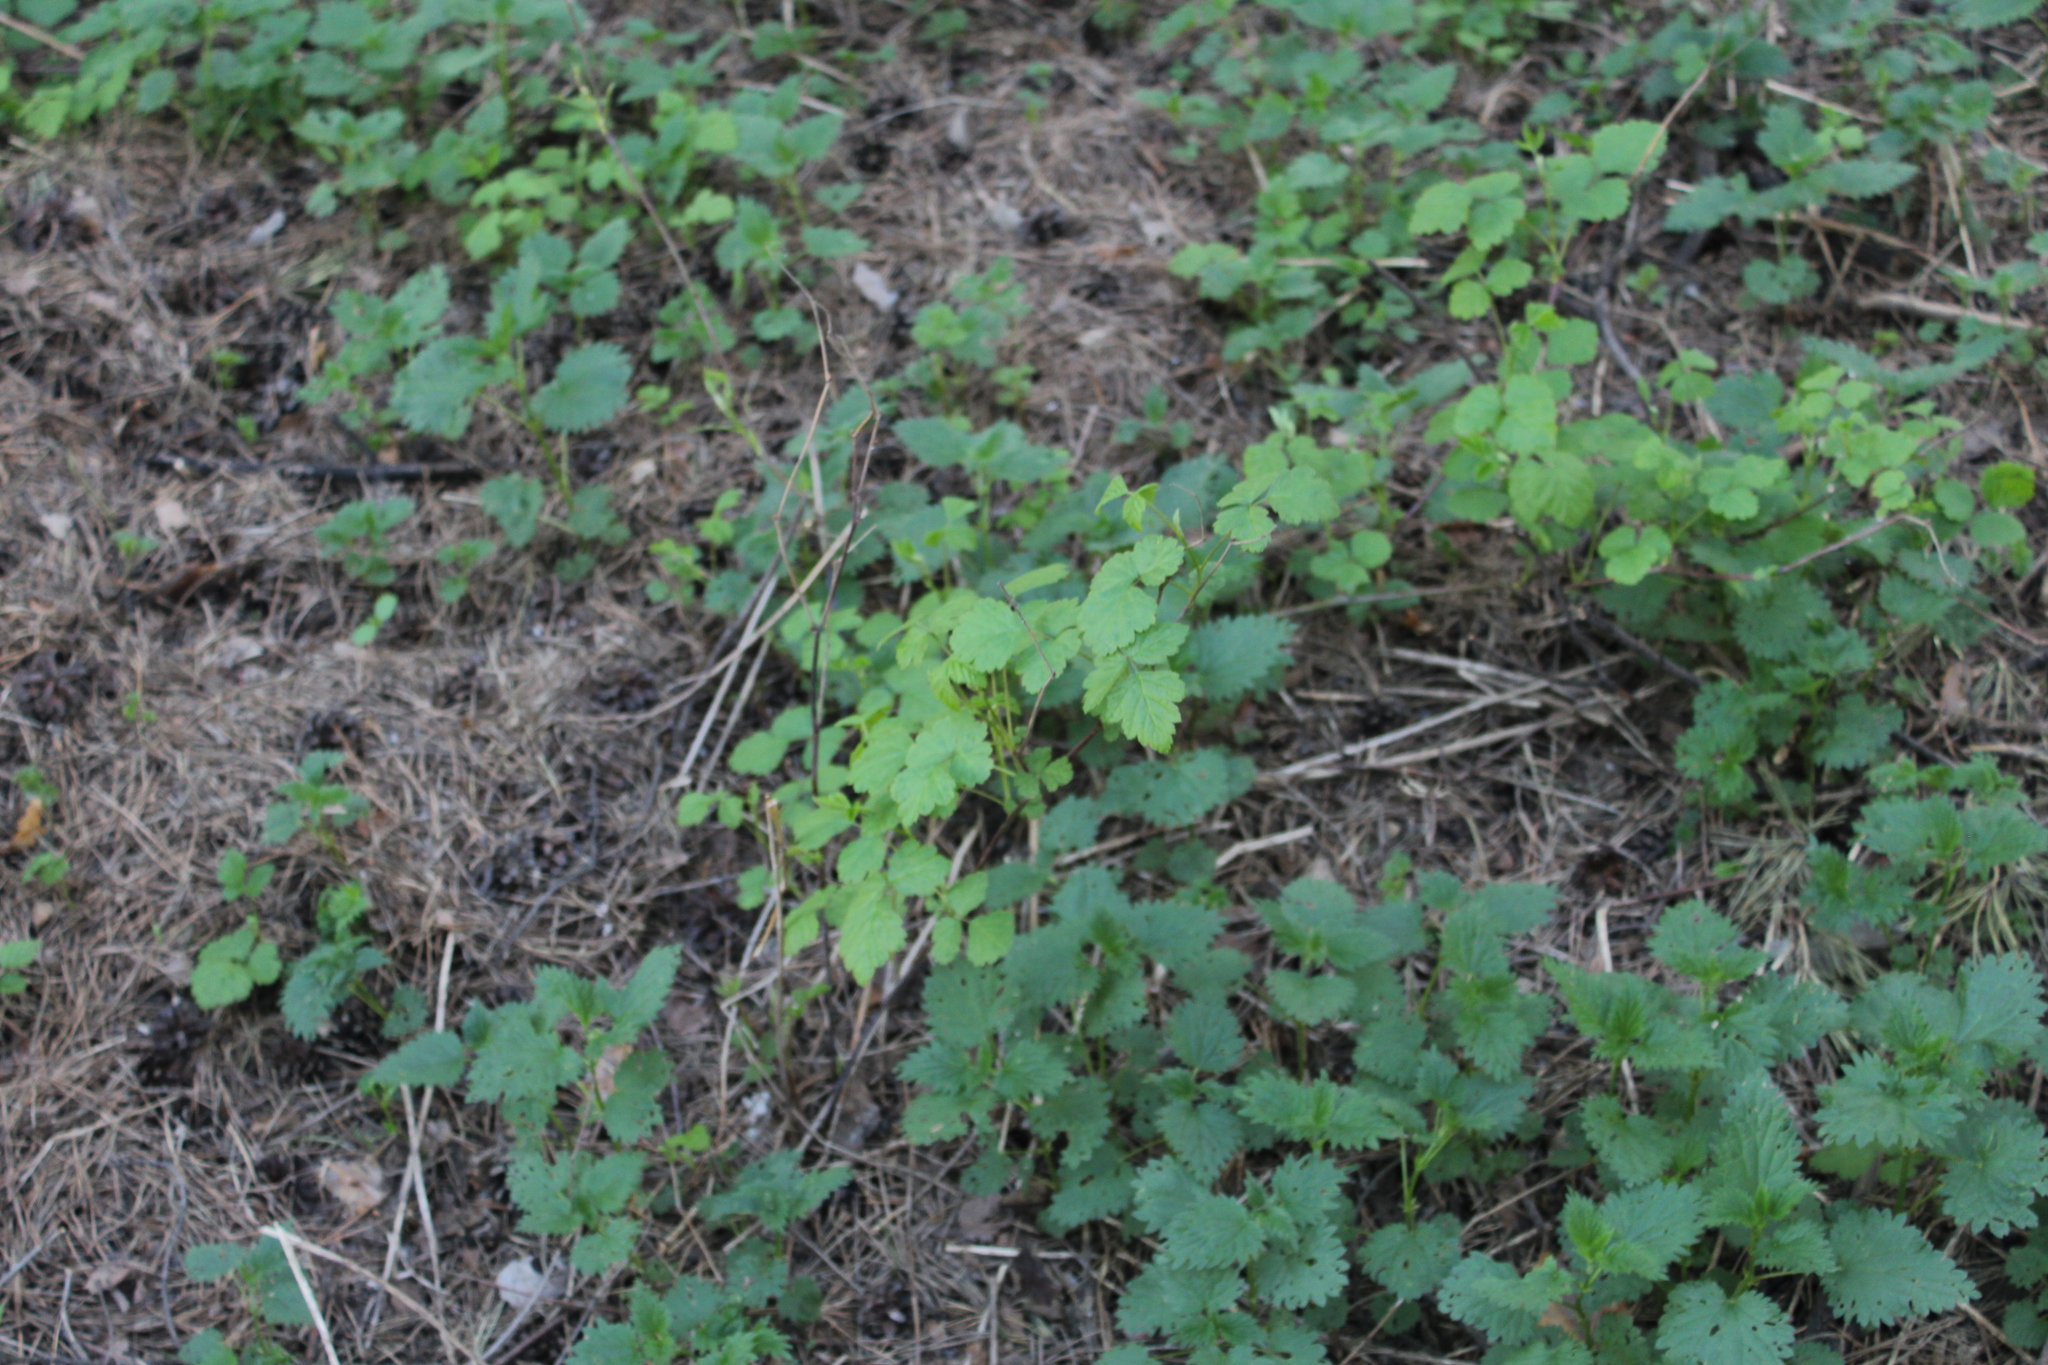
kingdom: Plantae
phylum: Tracheophyta
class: Magnoliopsida
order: Rosales
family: Rosaceae
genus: Rubus
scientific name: Rubus idaeus
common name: Raspberry
